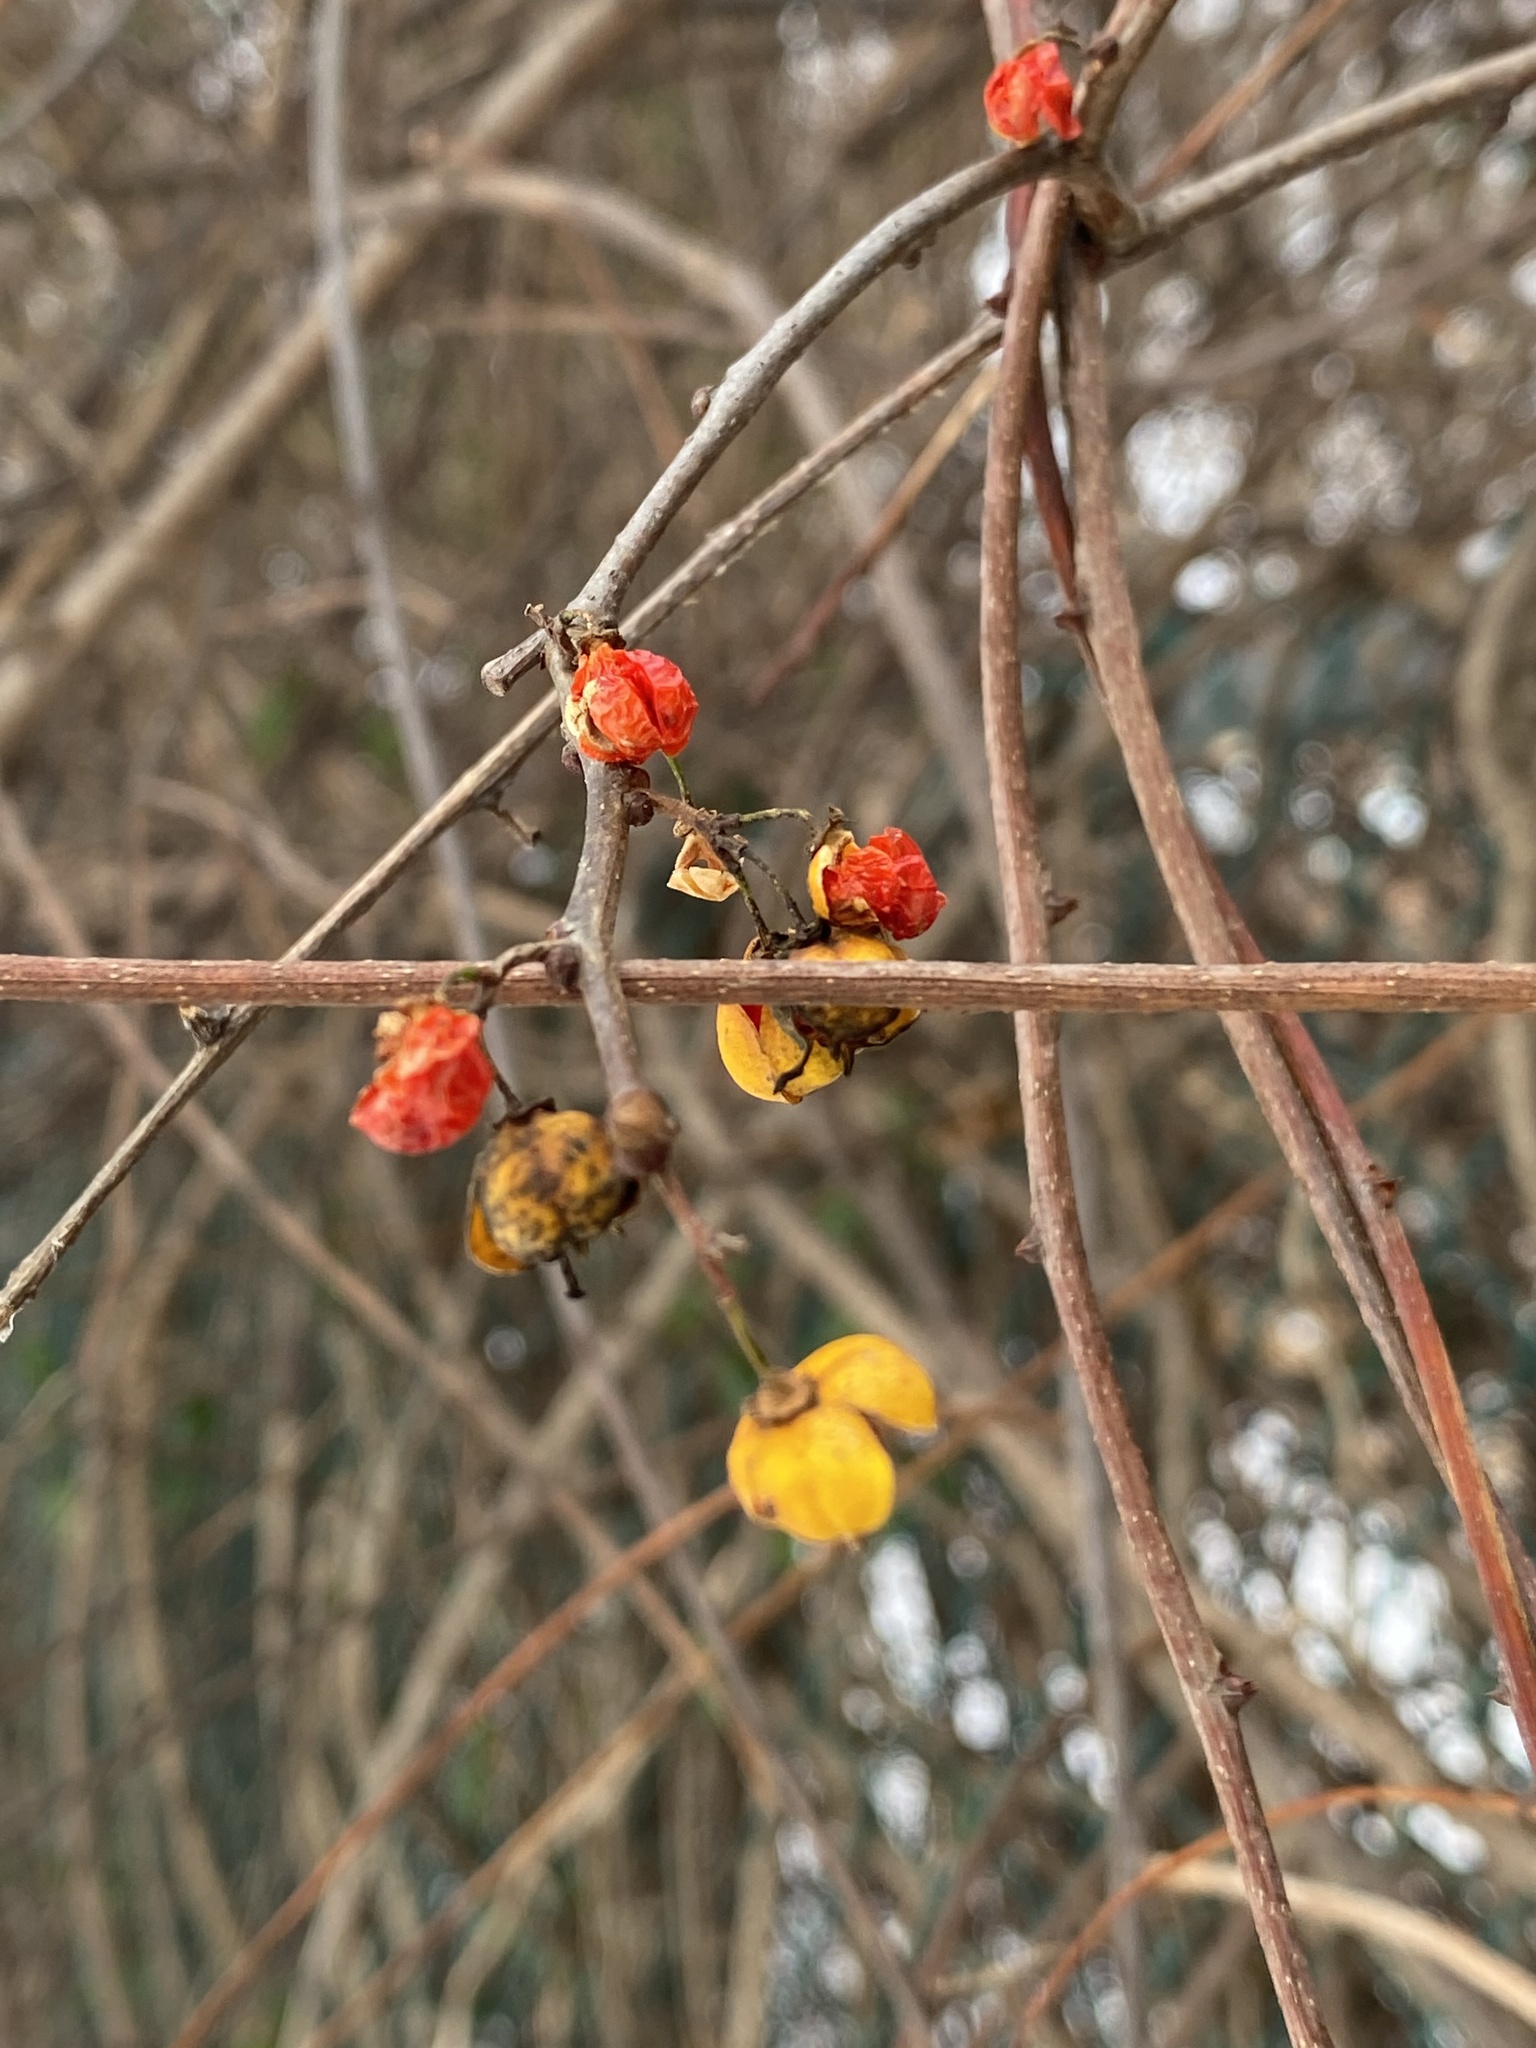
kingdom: Plantae
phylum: Tracheophyta
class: Magnoliopsida
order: Celastrales
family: Celastraceae
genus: Celastrus
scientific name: Celastrus orbiculatus
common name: Oriental bittersweet
